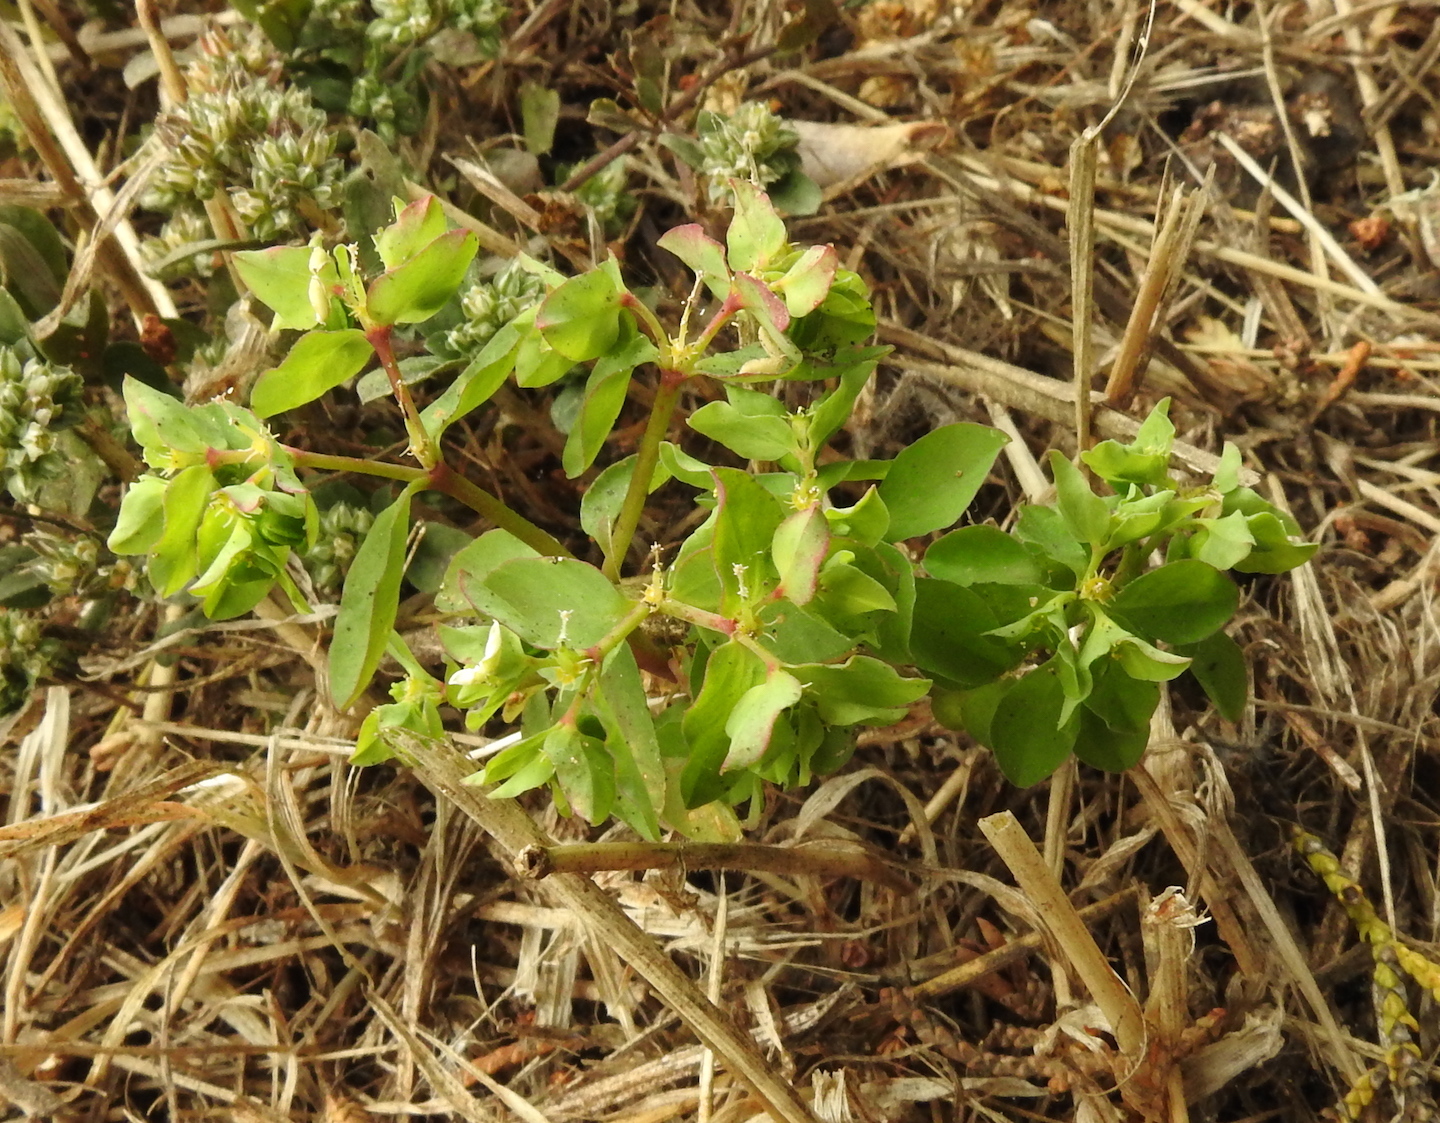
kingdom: Plantae
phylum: Tracheophyta
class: Magnoliopsida
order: Malpighiales
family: Euphorbiaceae
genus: Euphorbia
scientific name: Euphorbia peplus
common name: Petty spurge
